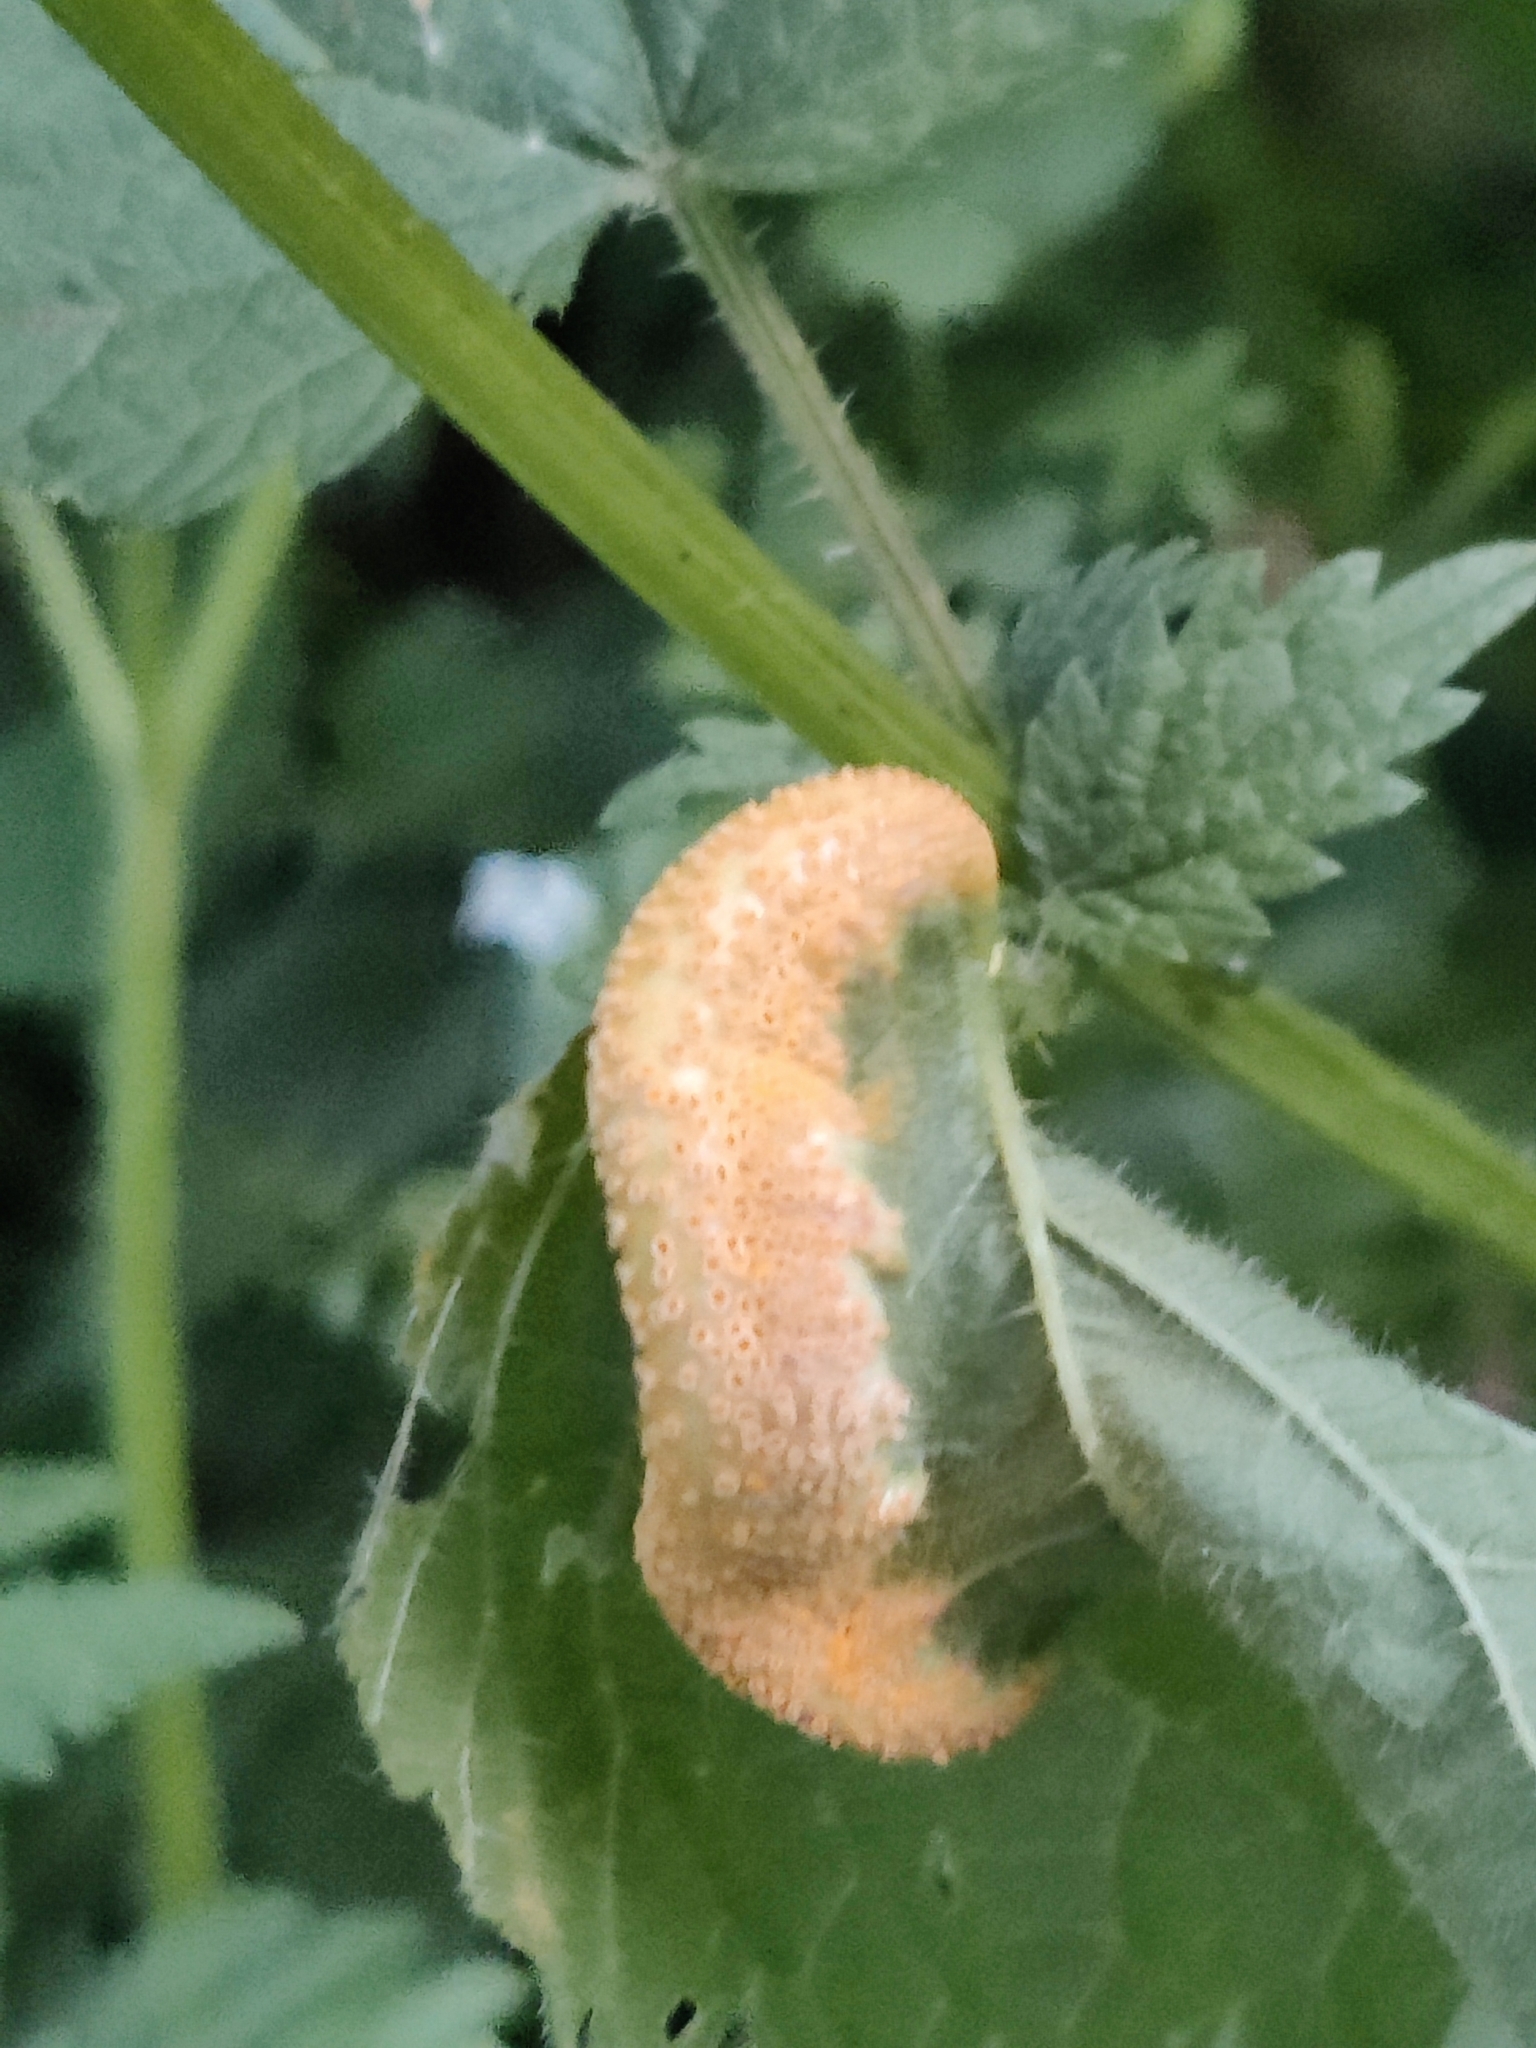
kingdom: Fungi
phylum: Basidiomycota
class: Pucciniomycetes
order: Pucciniales
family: Pucciniaceae
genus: Puccinia
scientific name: Puccinia urticata
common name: Nettle clustercup rust fungus
